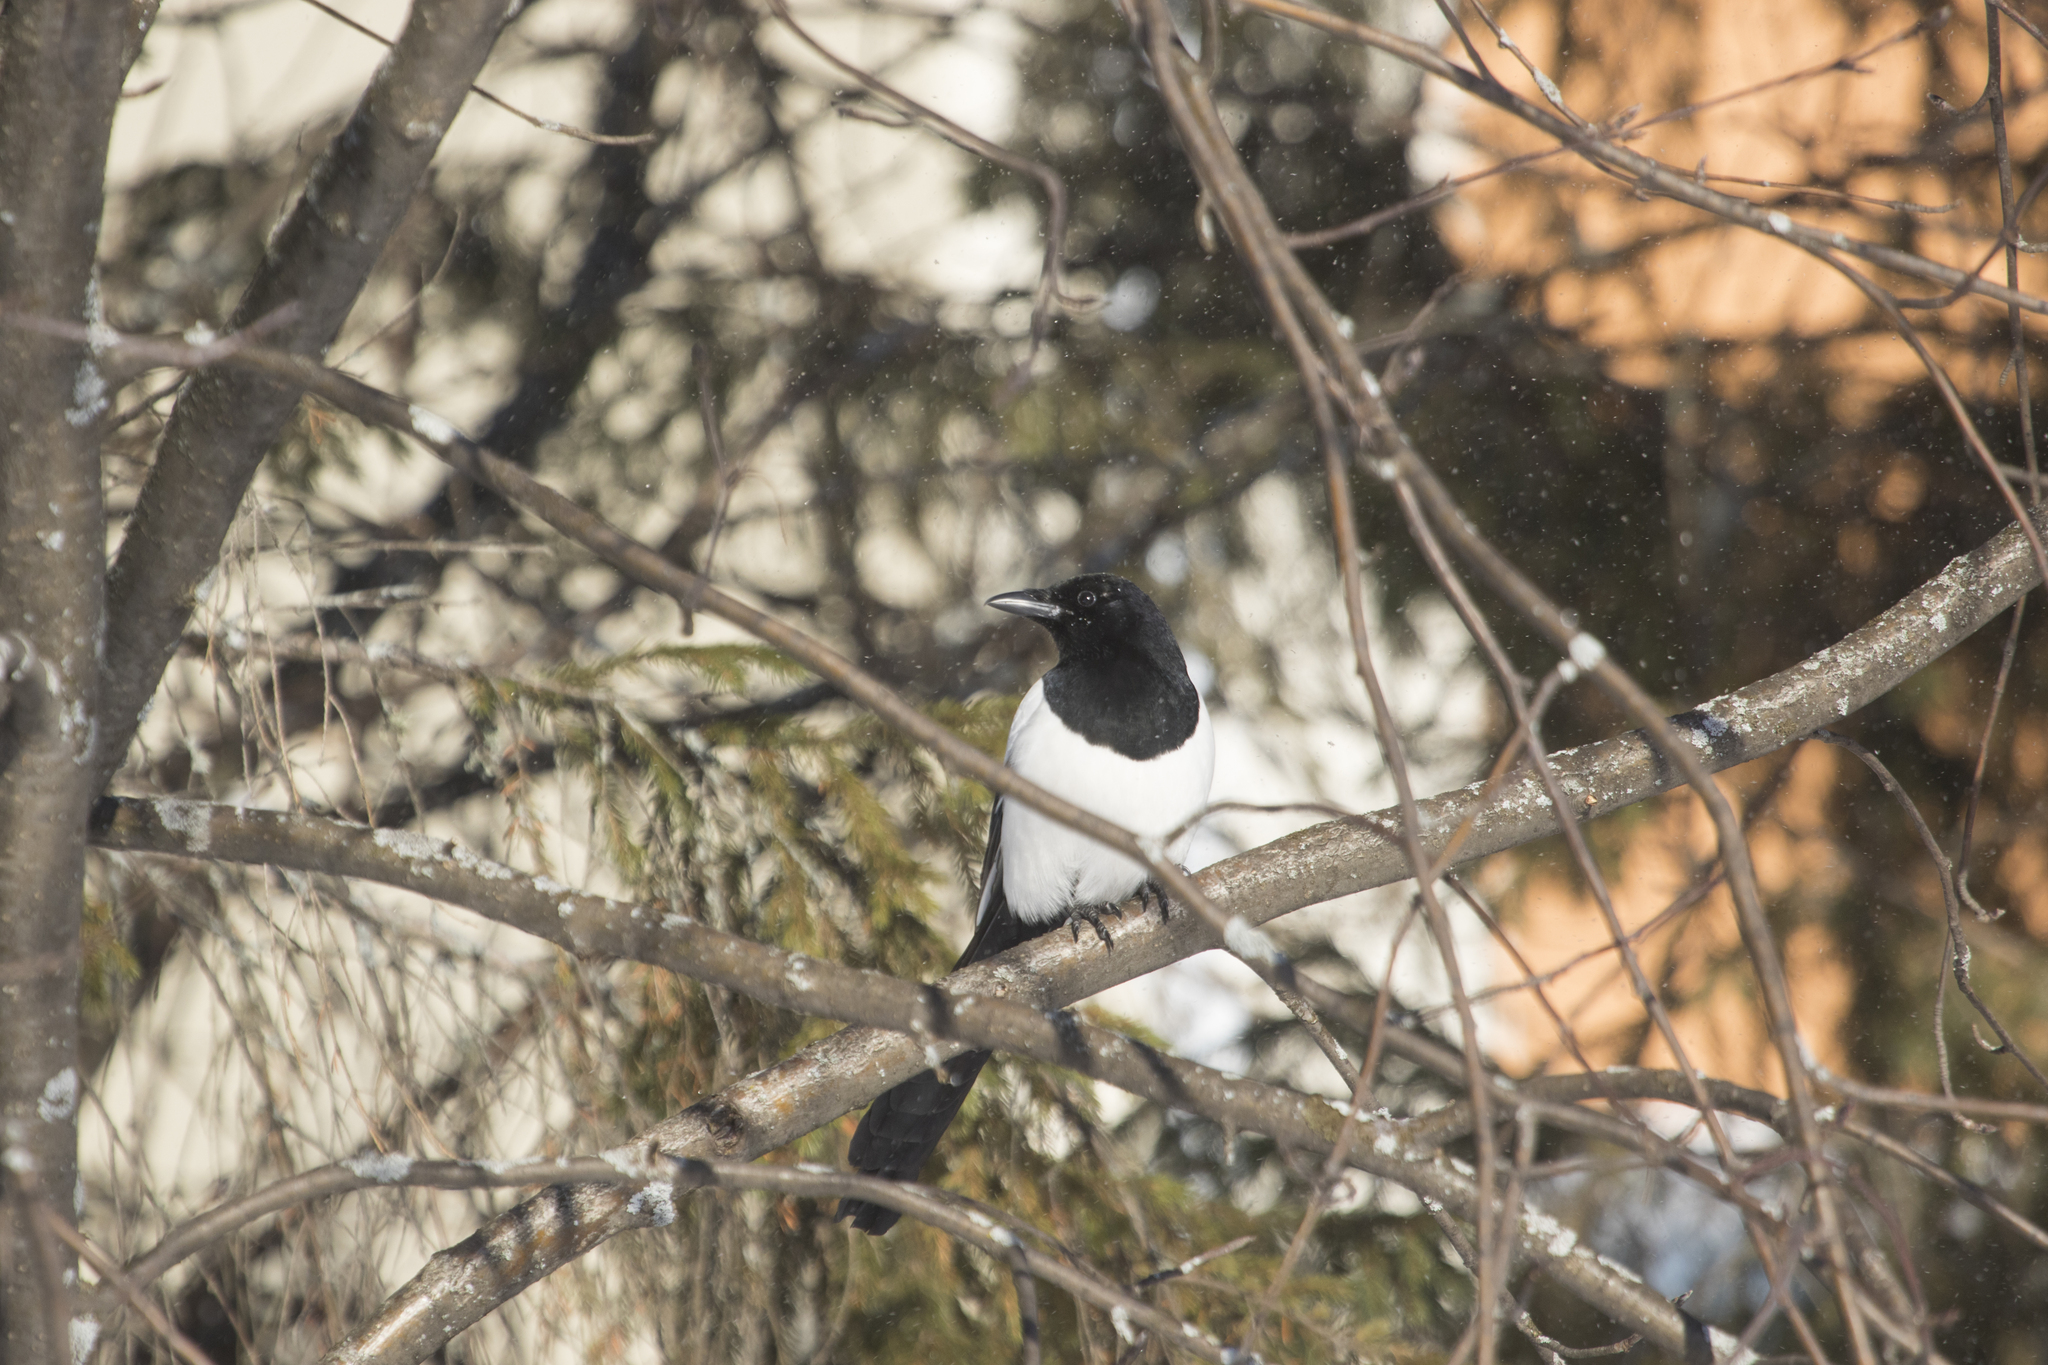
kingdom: Animalia
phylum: Chordata
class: Aves
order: Passeriformes
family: Corvidae
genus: Pica
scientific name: Pica pica
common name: Eurasian magpie
